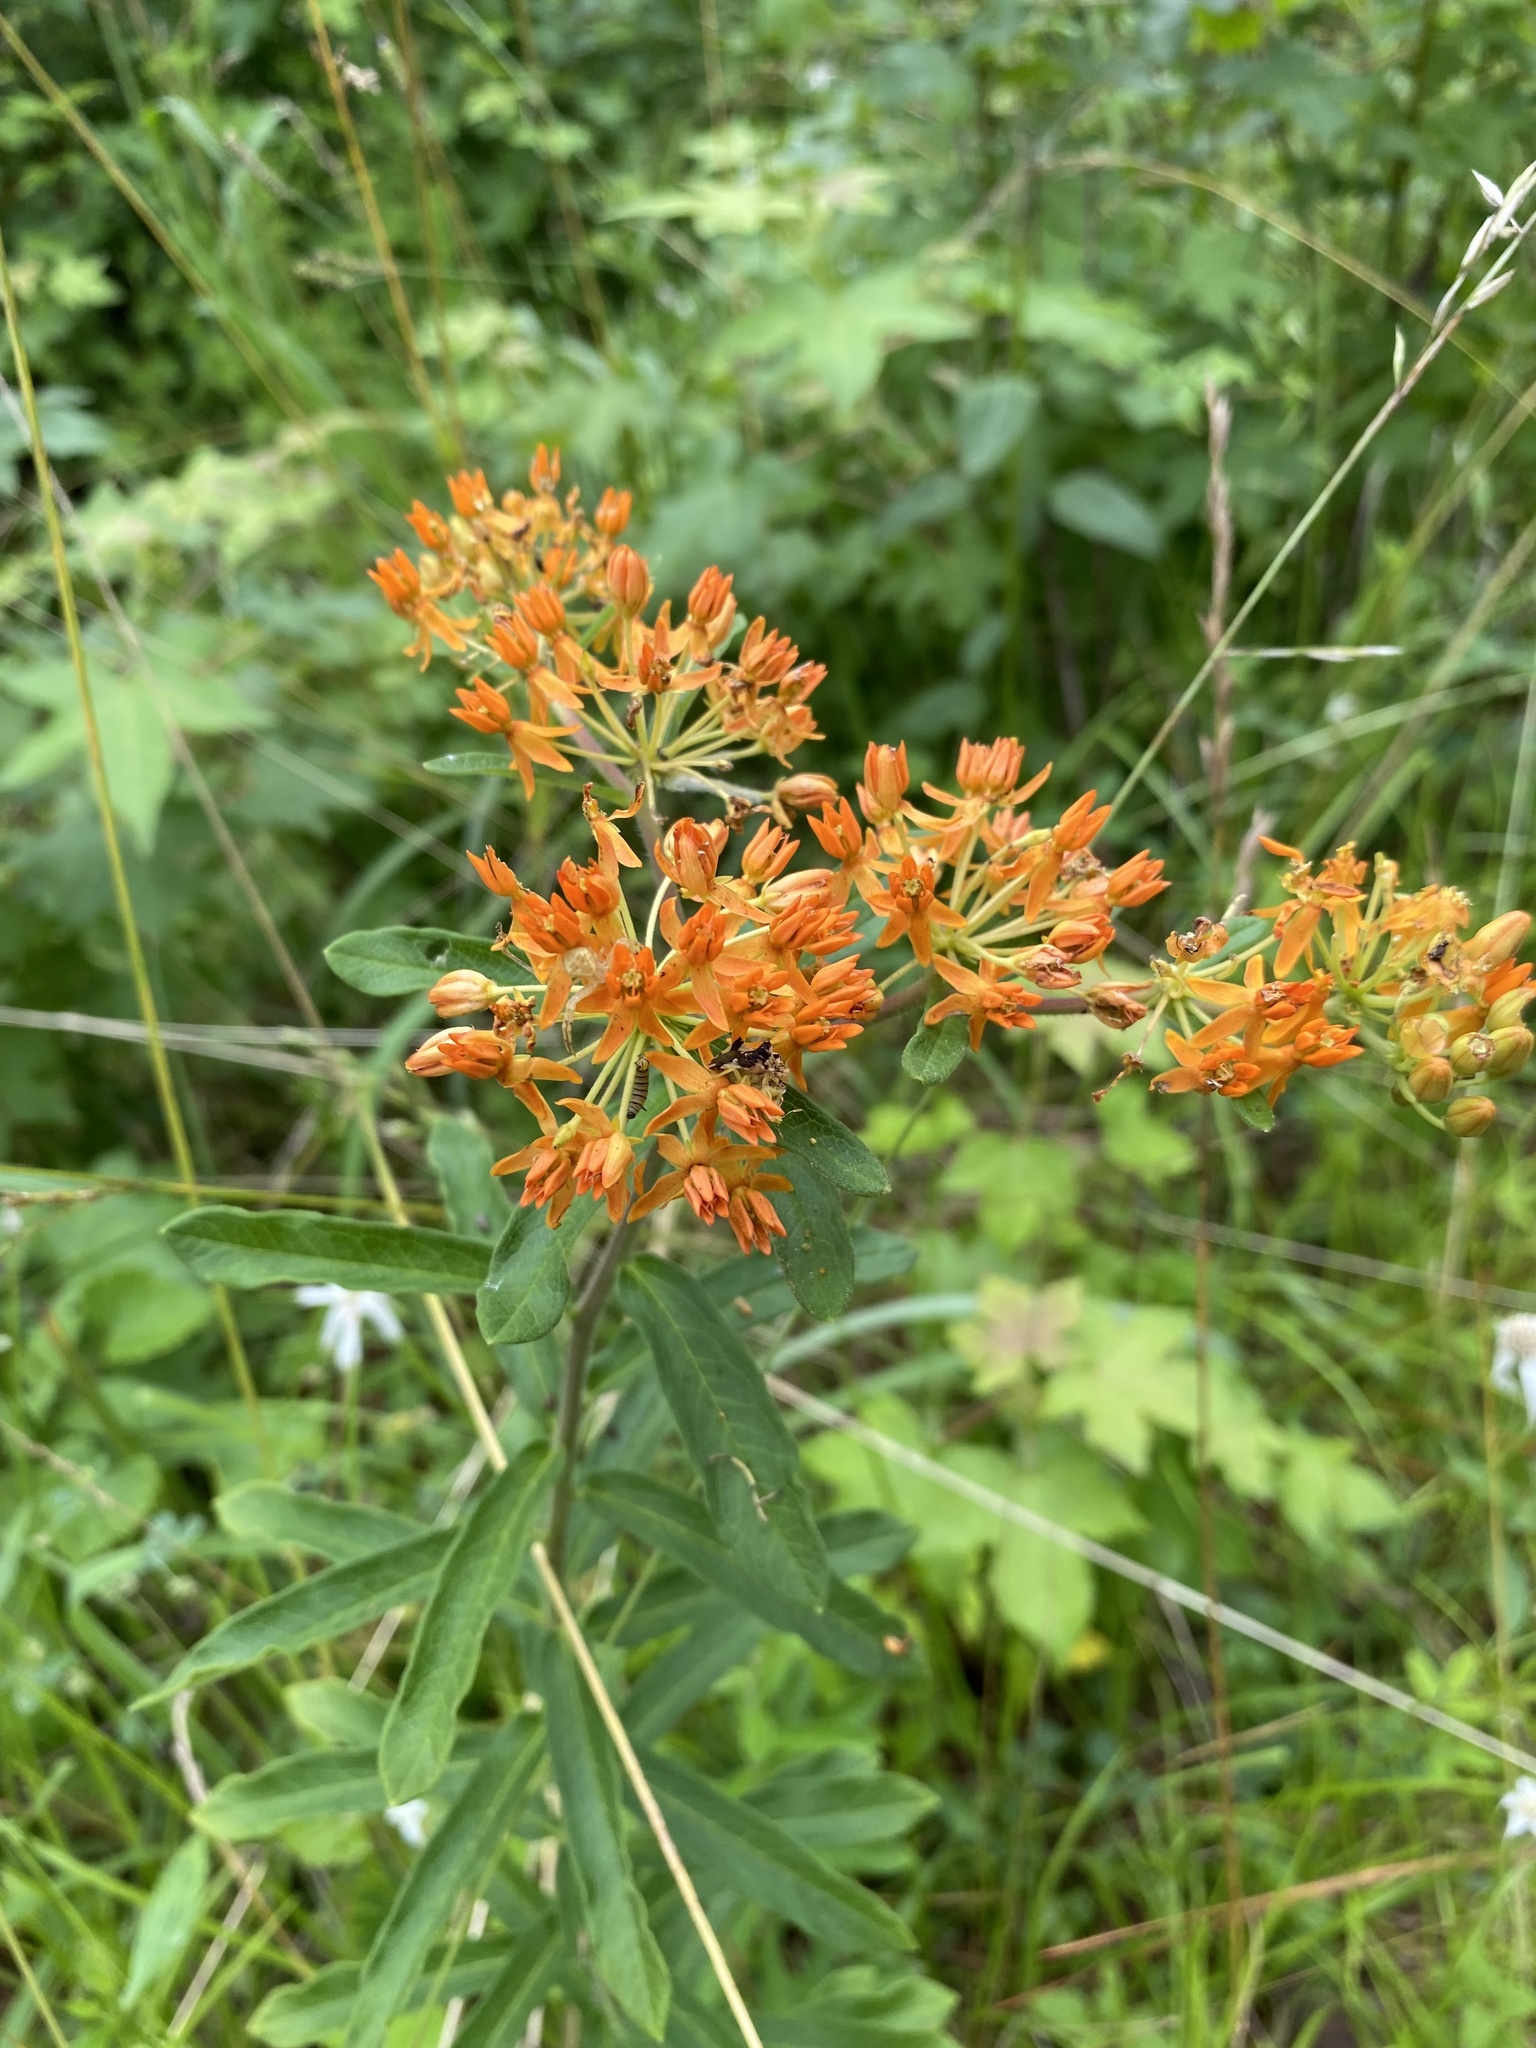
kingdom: Plantae
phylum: Tracheophyta
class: Magnoliopsida
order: Gentianales
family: Apocynaceae
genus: Asclepias
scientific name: Asclepias tuberosa
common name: Butterfly milkweed
